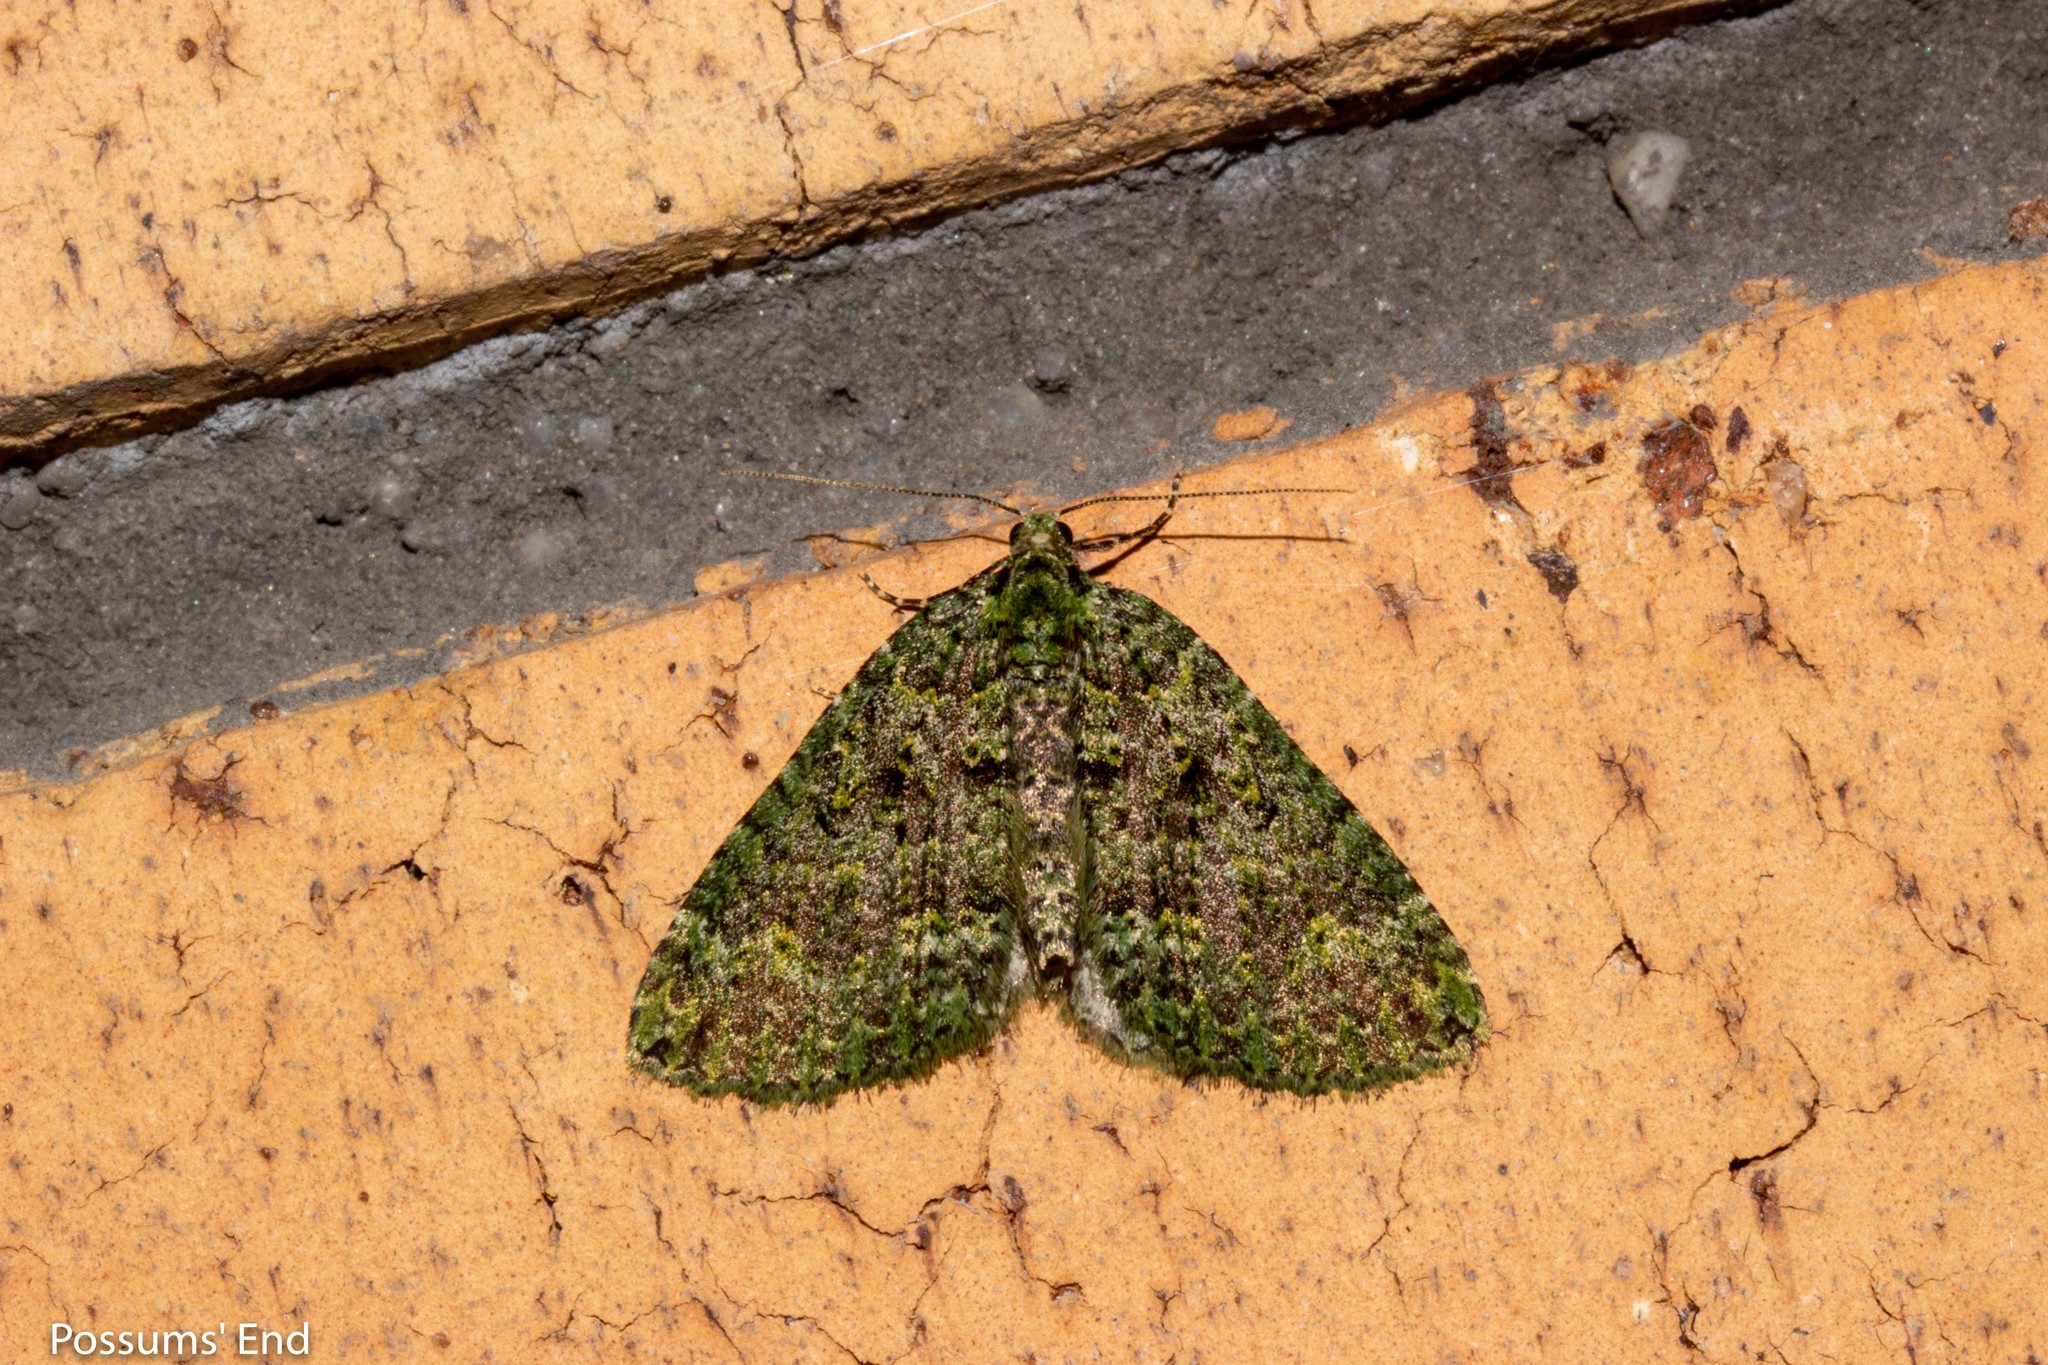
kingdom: Animalia
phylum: Arthropoda
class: Insecta
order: Lepidoptera
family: Geometridae
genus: Austrocidaria
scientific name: Austrocidaria callichlora
